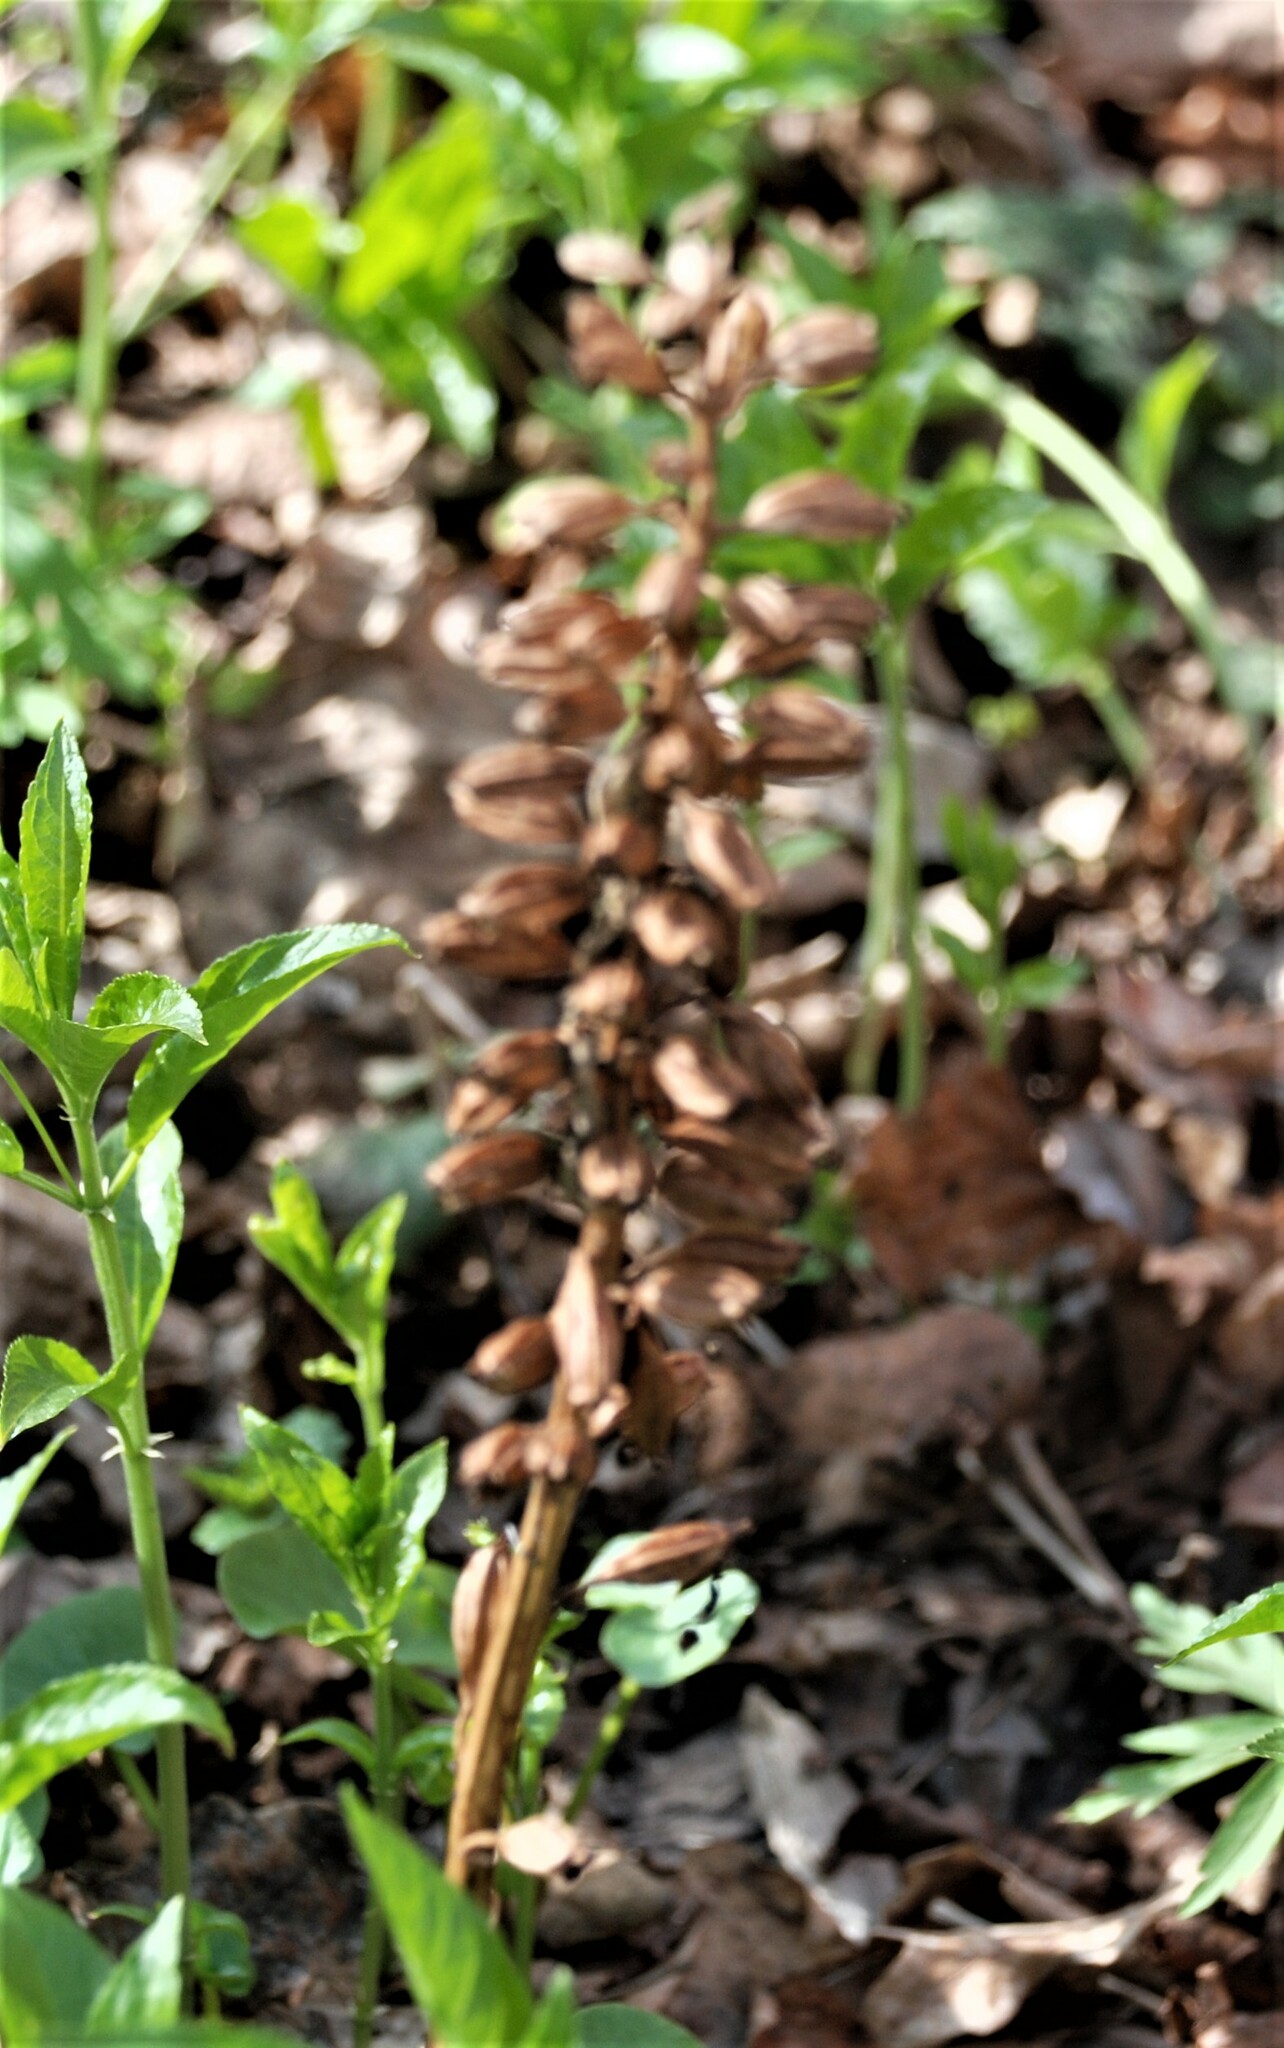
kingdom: Plantae
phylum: Tracheophyta
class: Liliopsida
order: Asparagales
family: Orchidaceae
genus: Neottia
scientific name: Neottia nidus-avis
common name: Bird's-nest orchid
